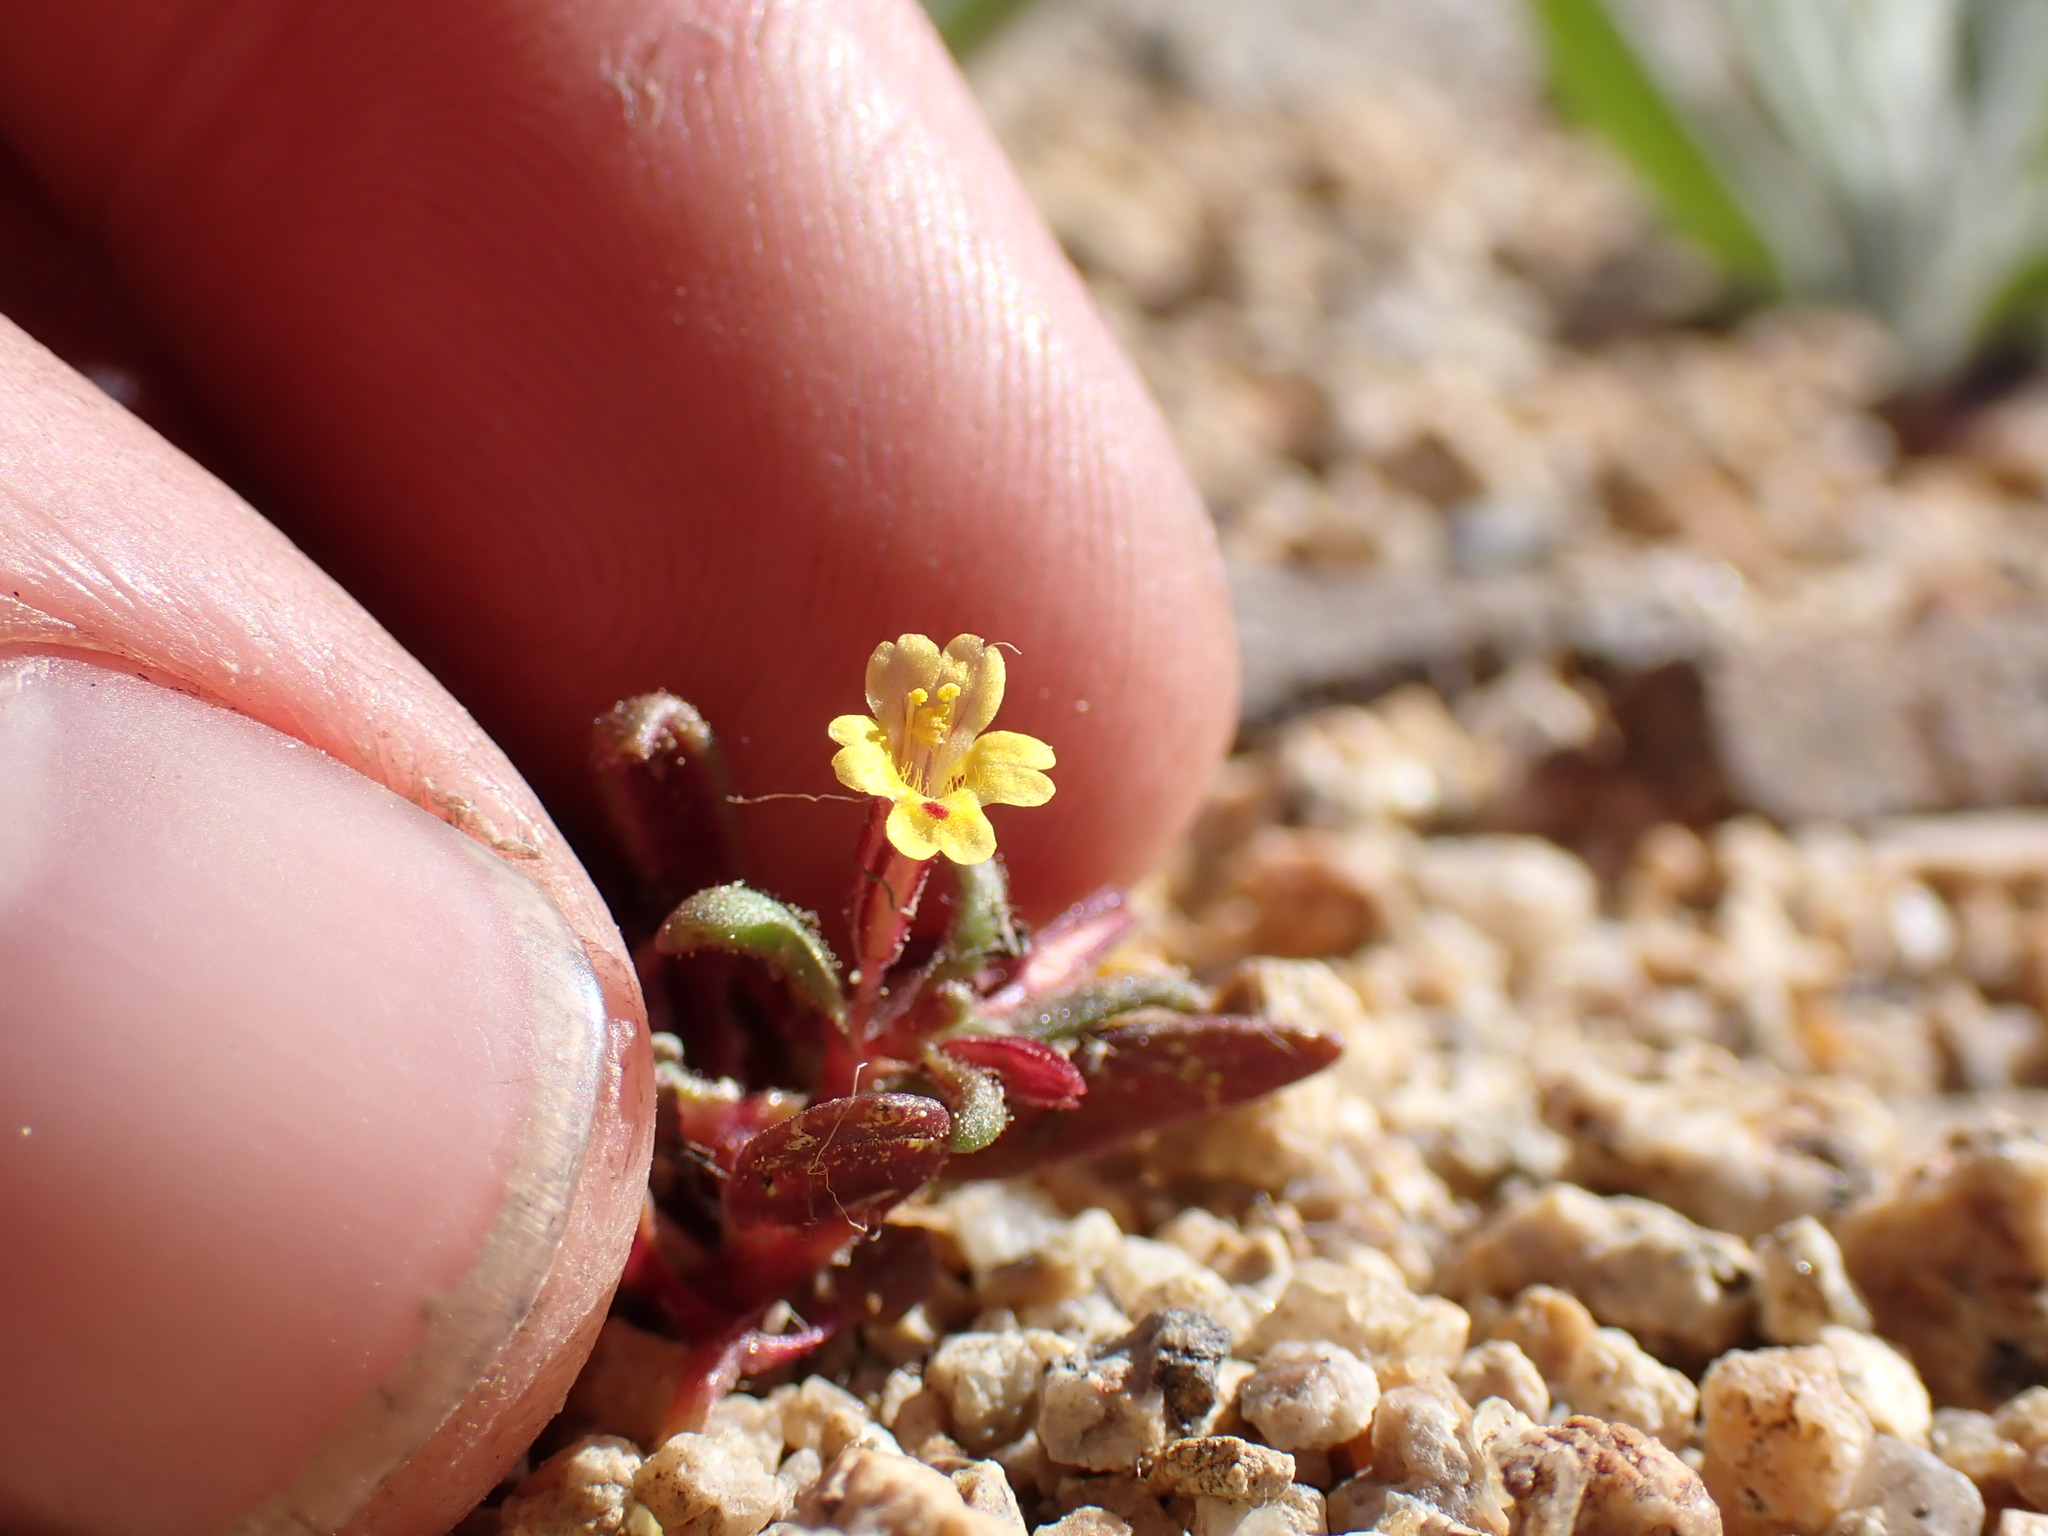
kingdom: Plantae
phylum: Tracheophyta
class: Magnoliopsida
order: Lamiales
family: Phrymaceae
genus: Erythranthe
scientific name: Erythranthe suksdorfii
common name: Suksdorf's monkeyflower
